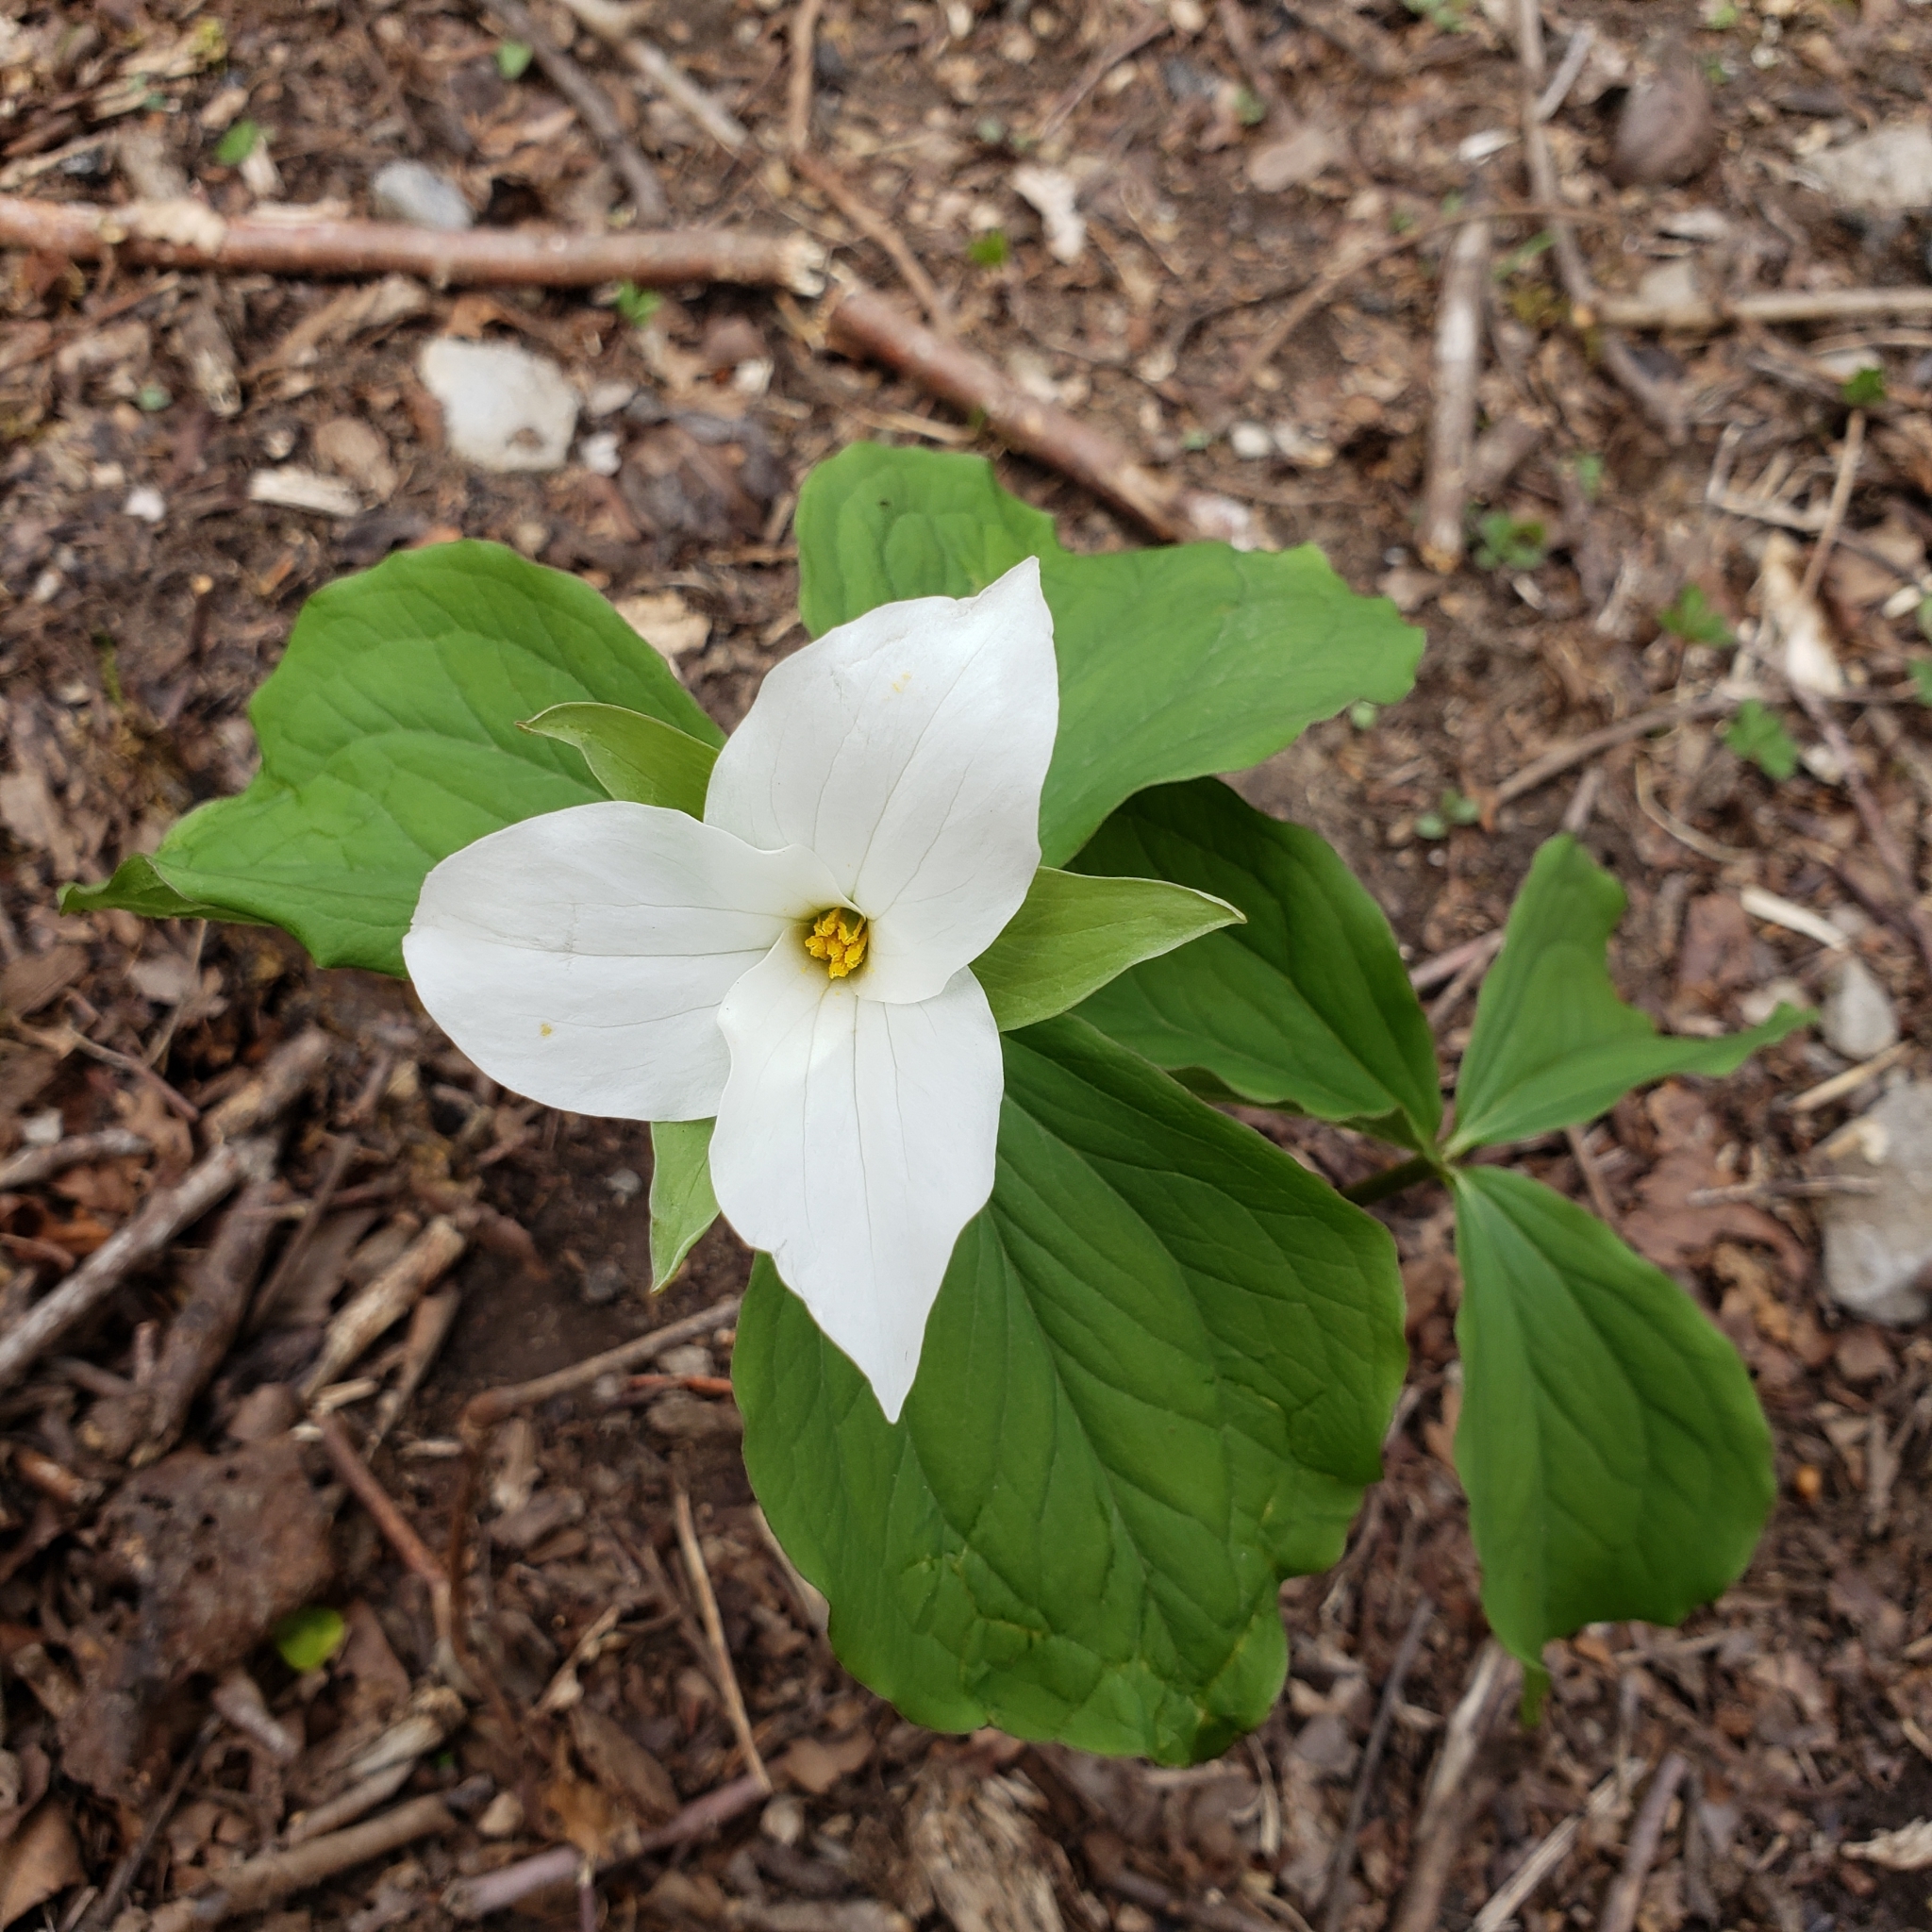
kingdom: Plantae
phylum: Tracheophyta
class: Liliopsida
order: Liliales
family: Melanthiaceae
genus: Trillium
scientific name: Trillium grandiflorum
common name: Great white trillium
